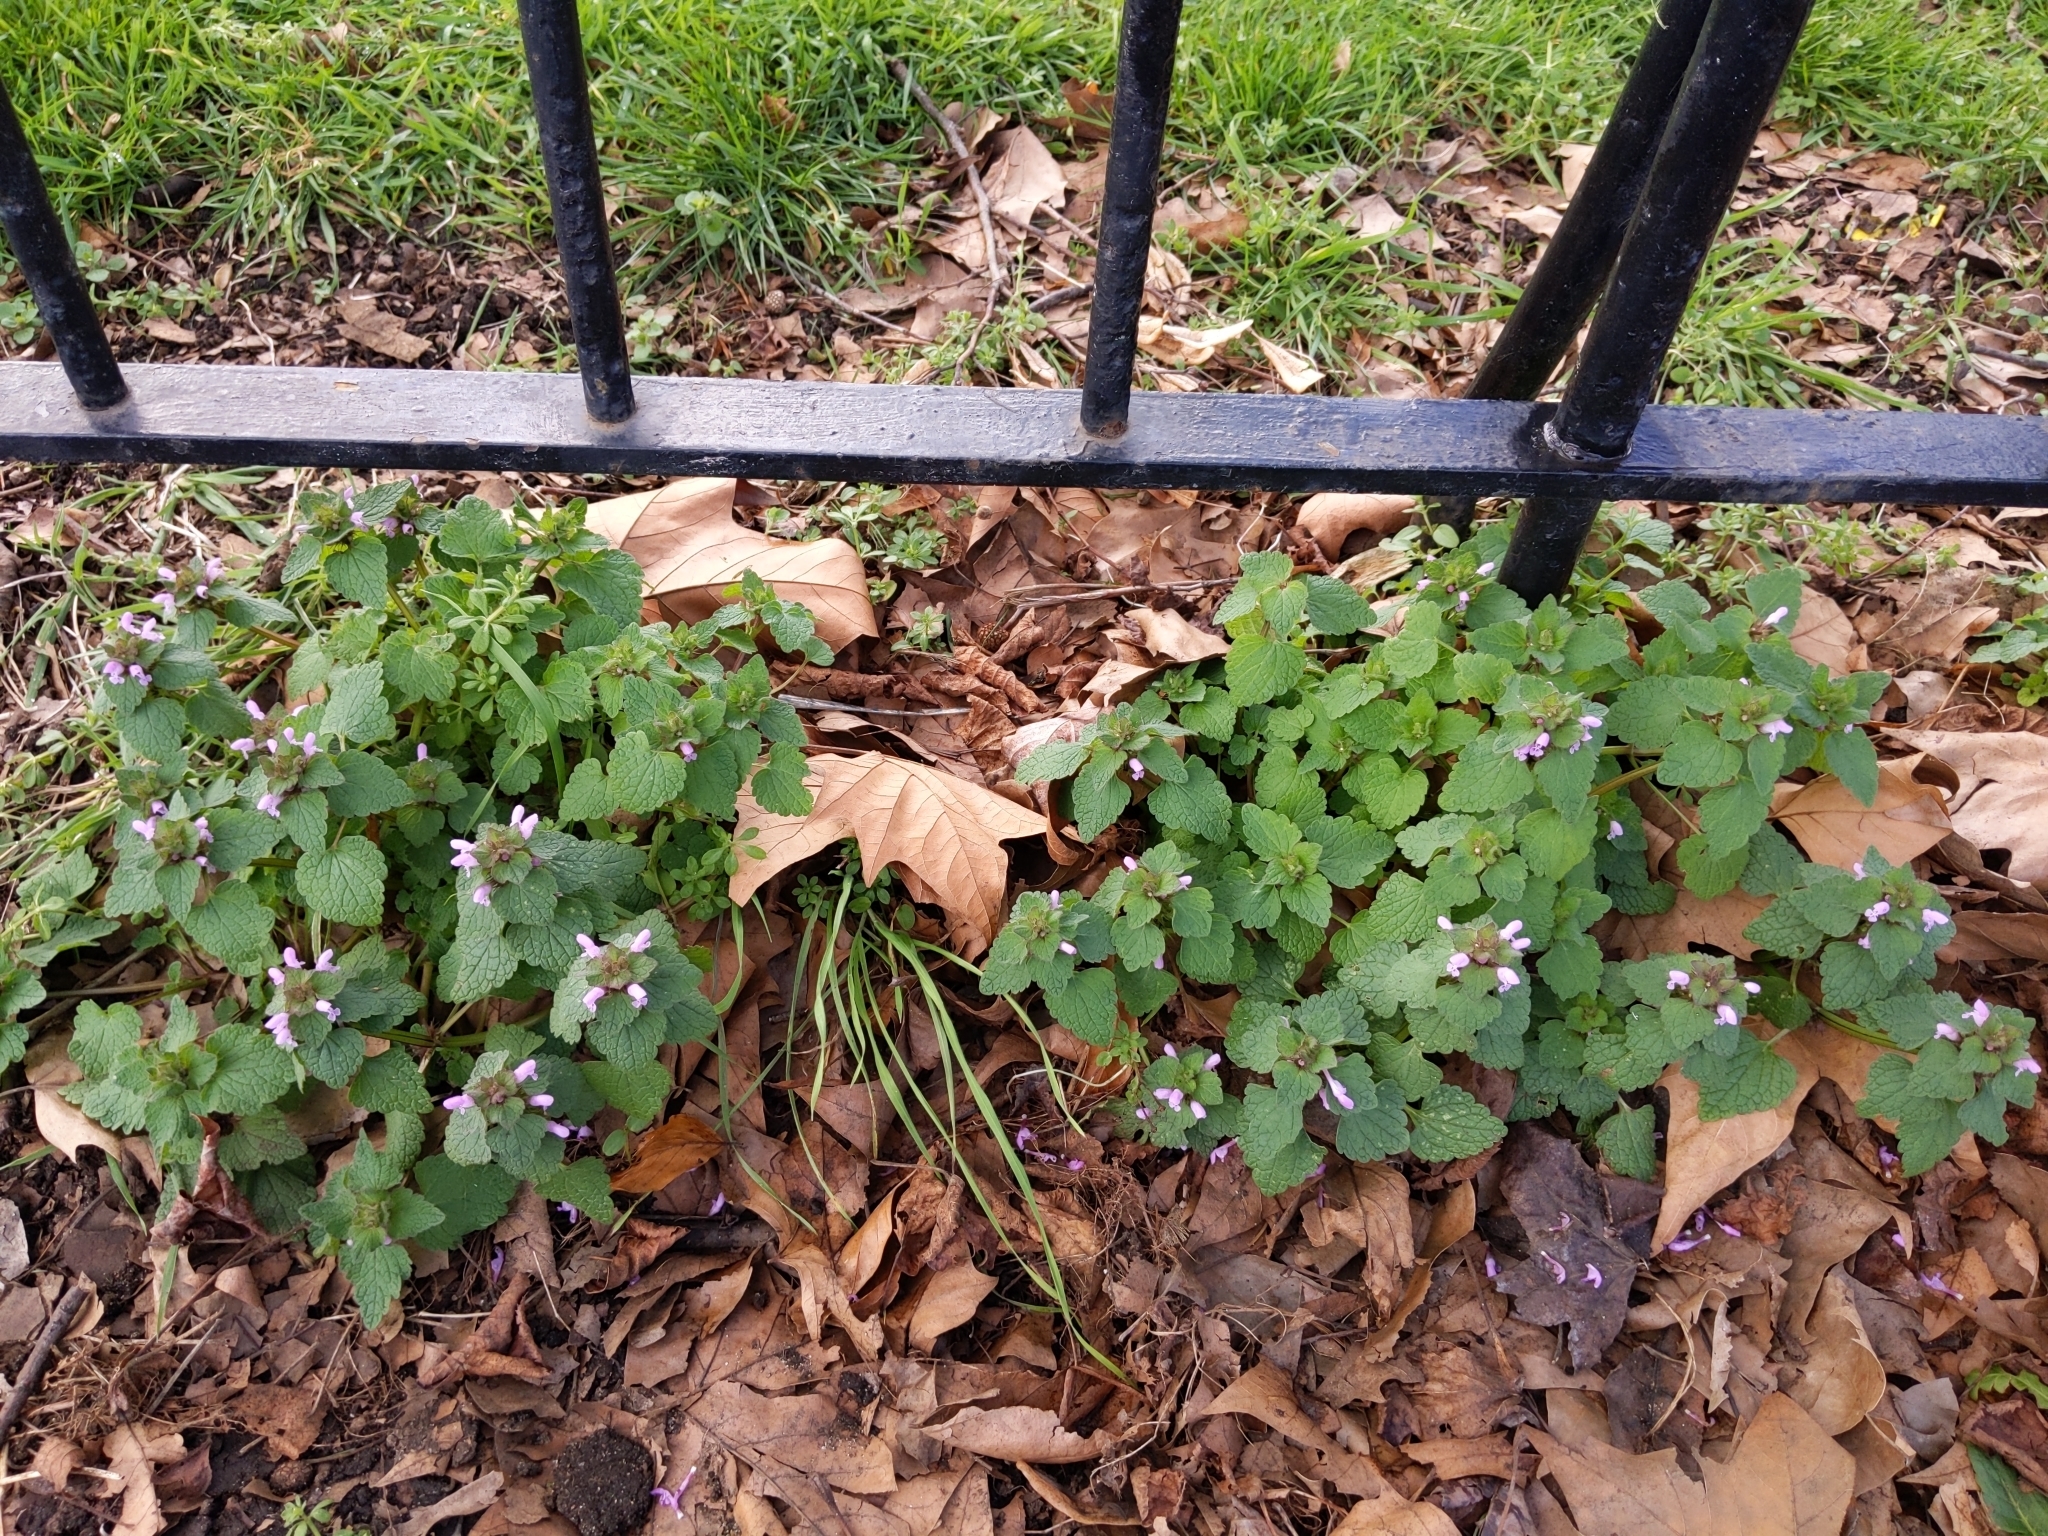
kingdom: Plantae
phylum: Tracheophyta
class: Magnoliopsida
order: Lamiales
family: Lamiaceae
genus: Lamium
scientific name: Lamium purpureum
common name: Red dead-nettle
